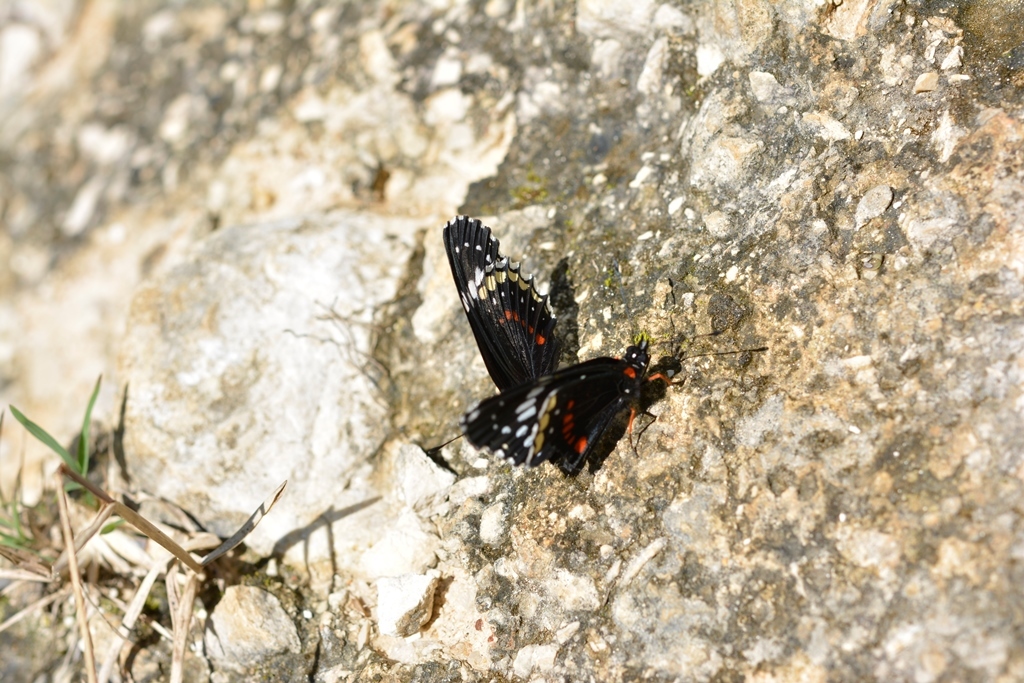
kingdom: Animalia
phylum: Arthropoda
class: Insecta
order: Lepidoptera
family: Nymphalidae
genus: Chlosyne
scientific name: Chlosyne hippodrome
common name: Simple patch
